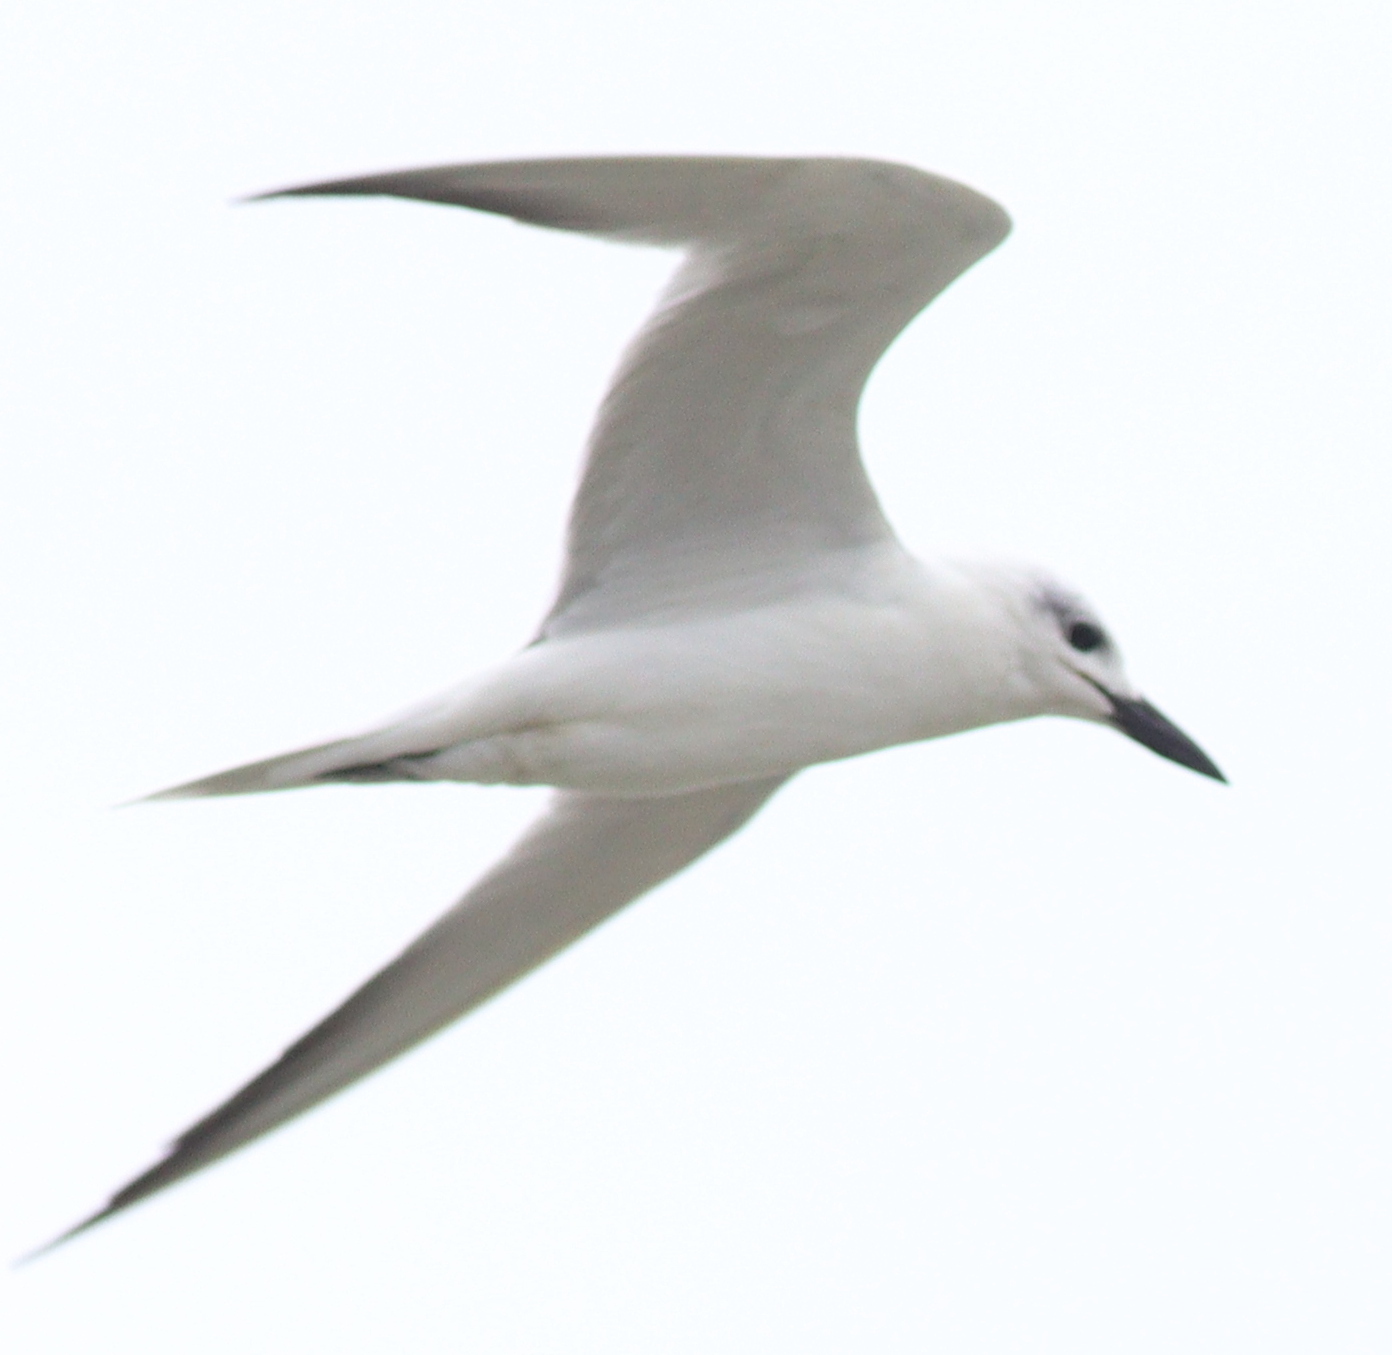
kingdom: Animalia
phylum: Chordata
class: Aves
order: Charadriiformes
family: Laridae
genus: Gelochelidon
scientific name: Gelochelidon nilotica
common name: Gull-billed tern
